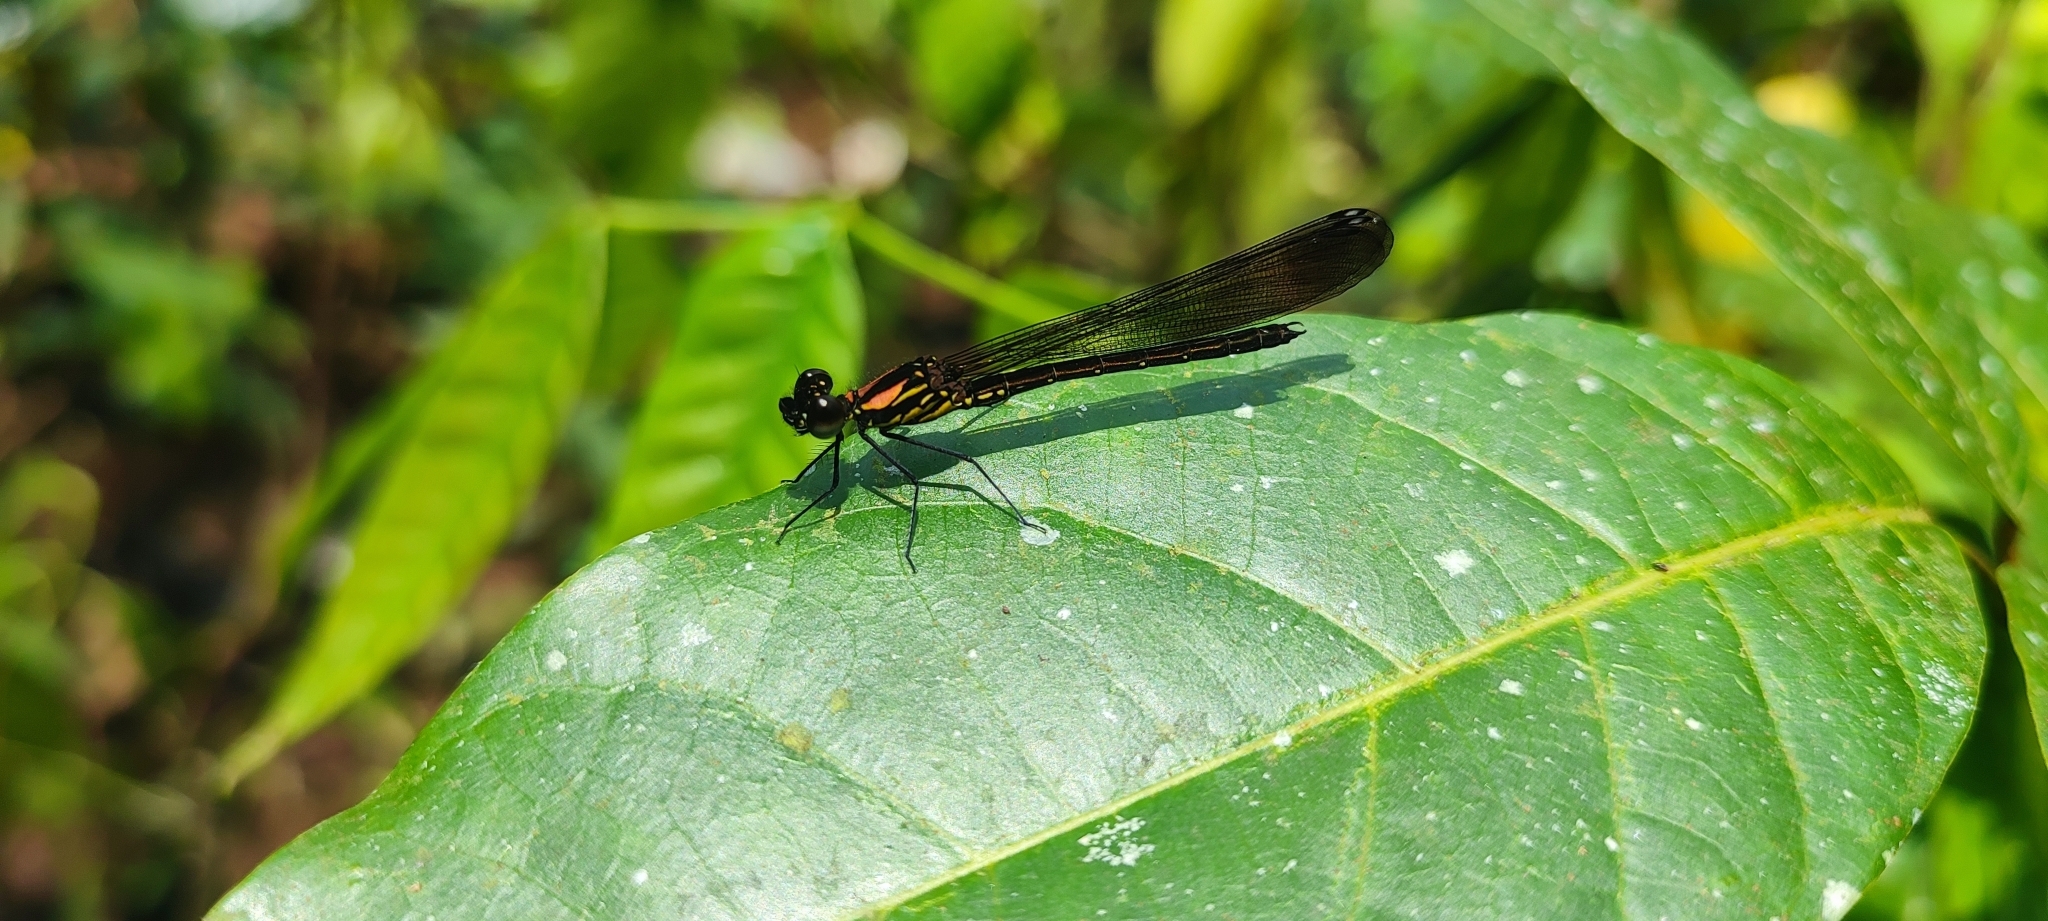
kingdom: Animalia
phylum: Arthropoda
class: Insecta
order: Odonata
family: Chlorocyphidae
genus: Heliocypha
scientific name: Heliocypha bisignata
